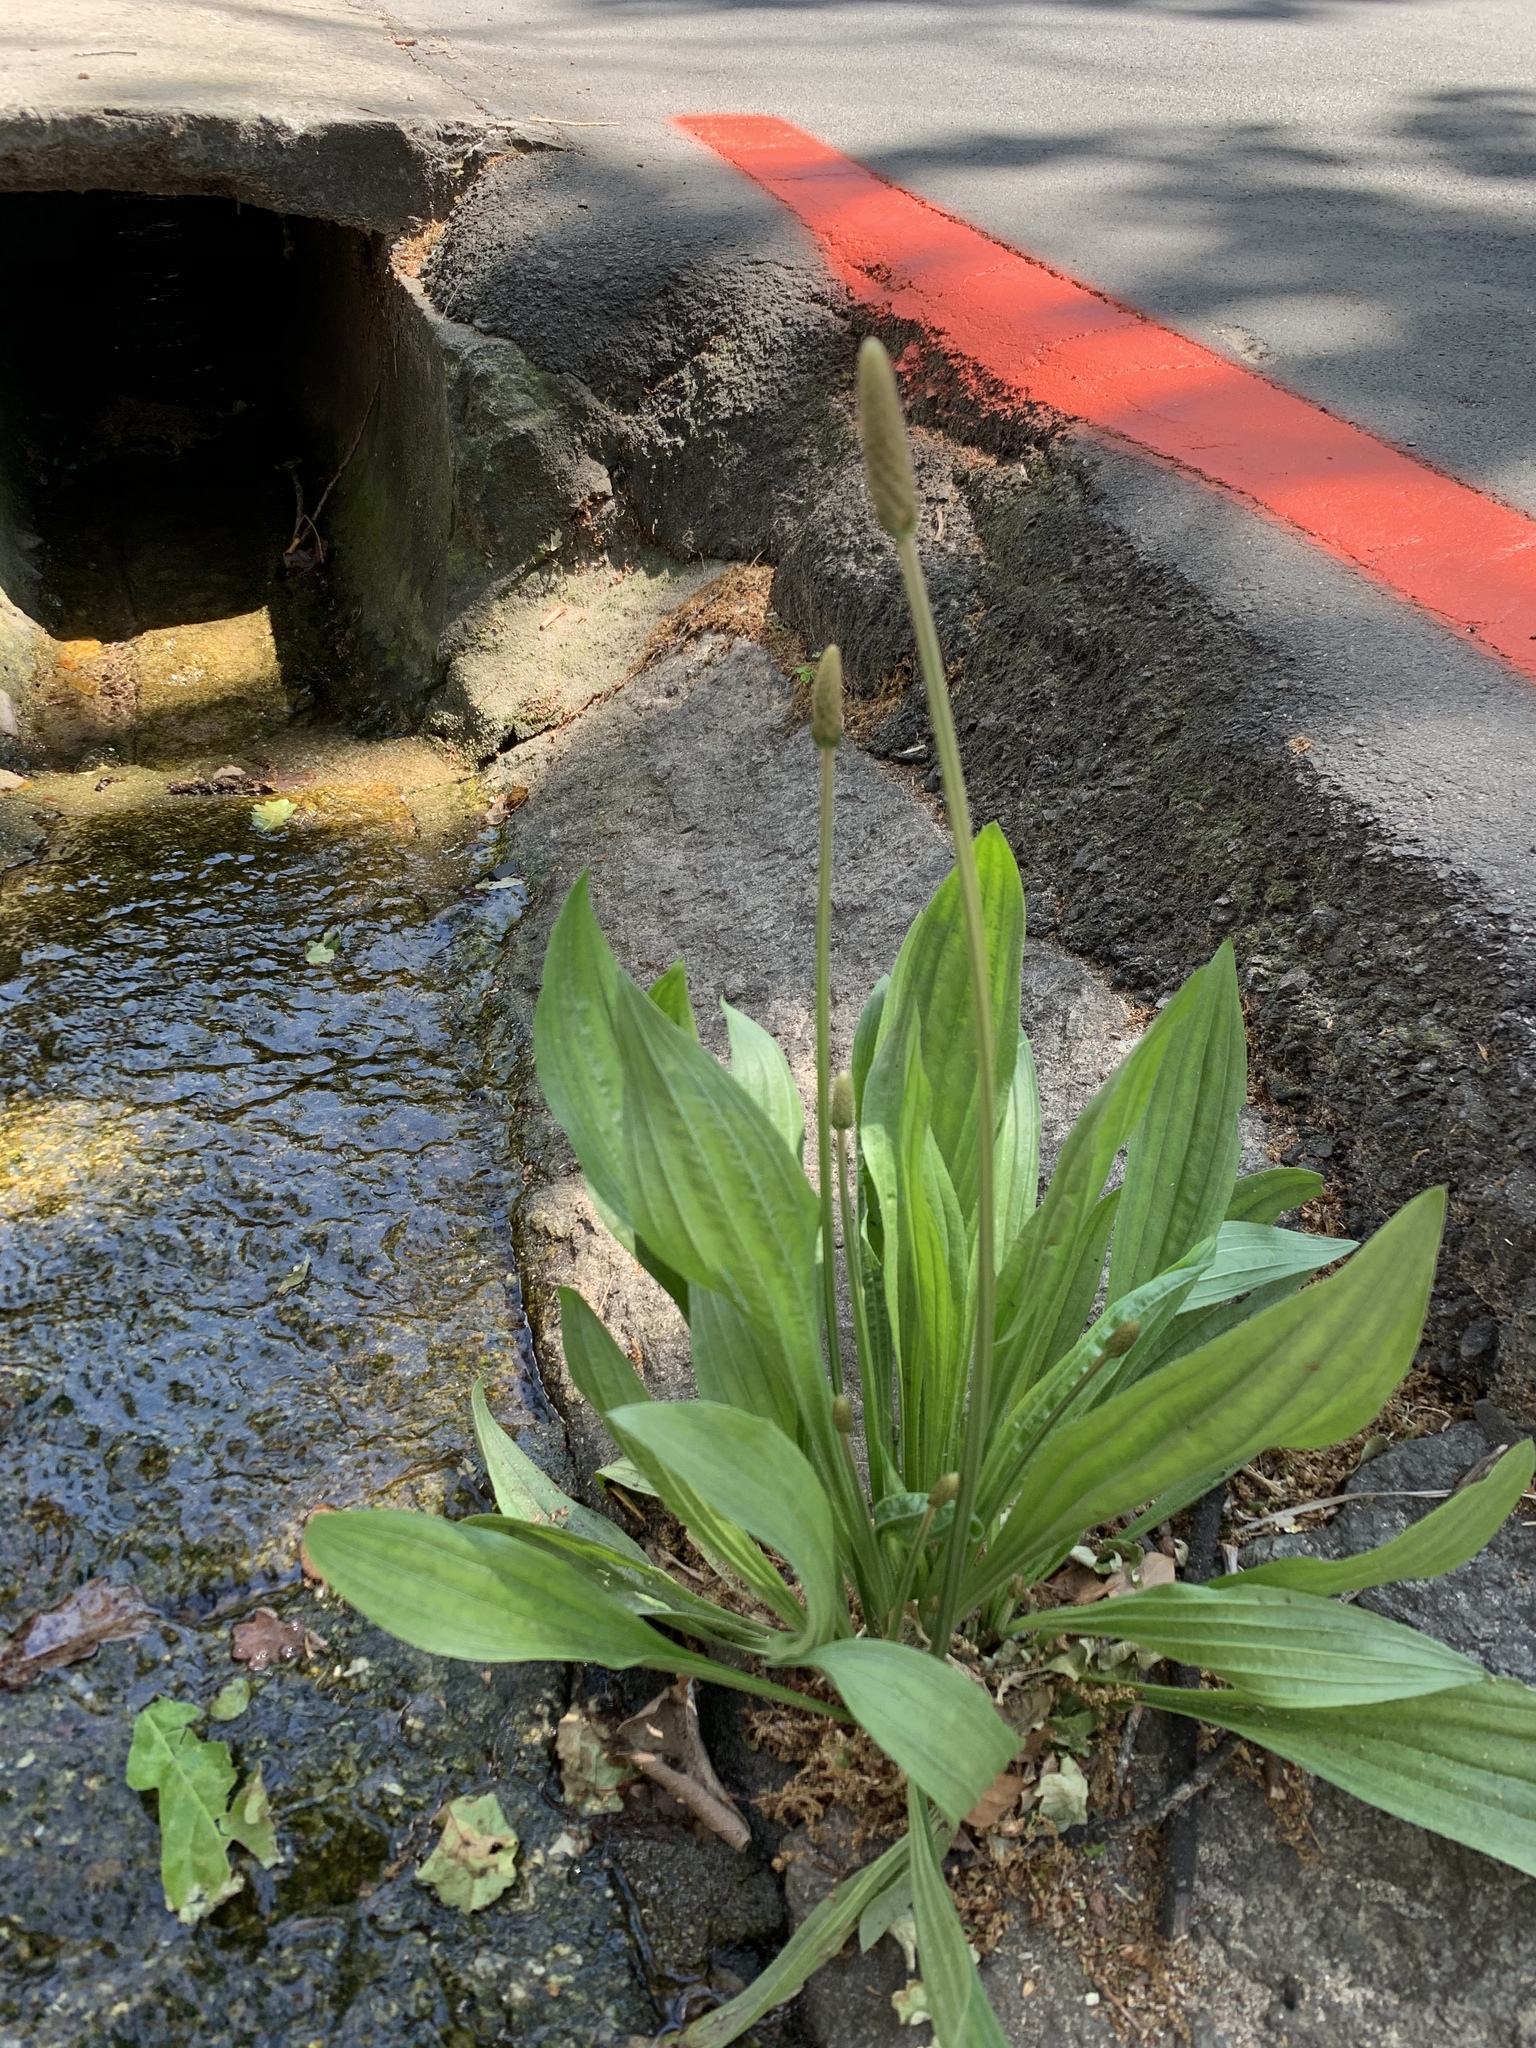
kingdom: Plantae
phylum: Tracheophyta
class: Magnoliopsida
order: Lamiales
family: Plantaginaceae
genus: Plantago
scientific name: Plantago lanceolata
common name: Ribwort plantain
